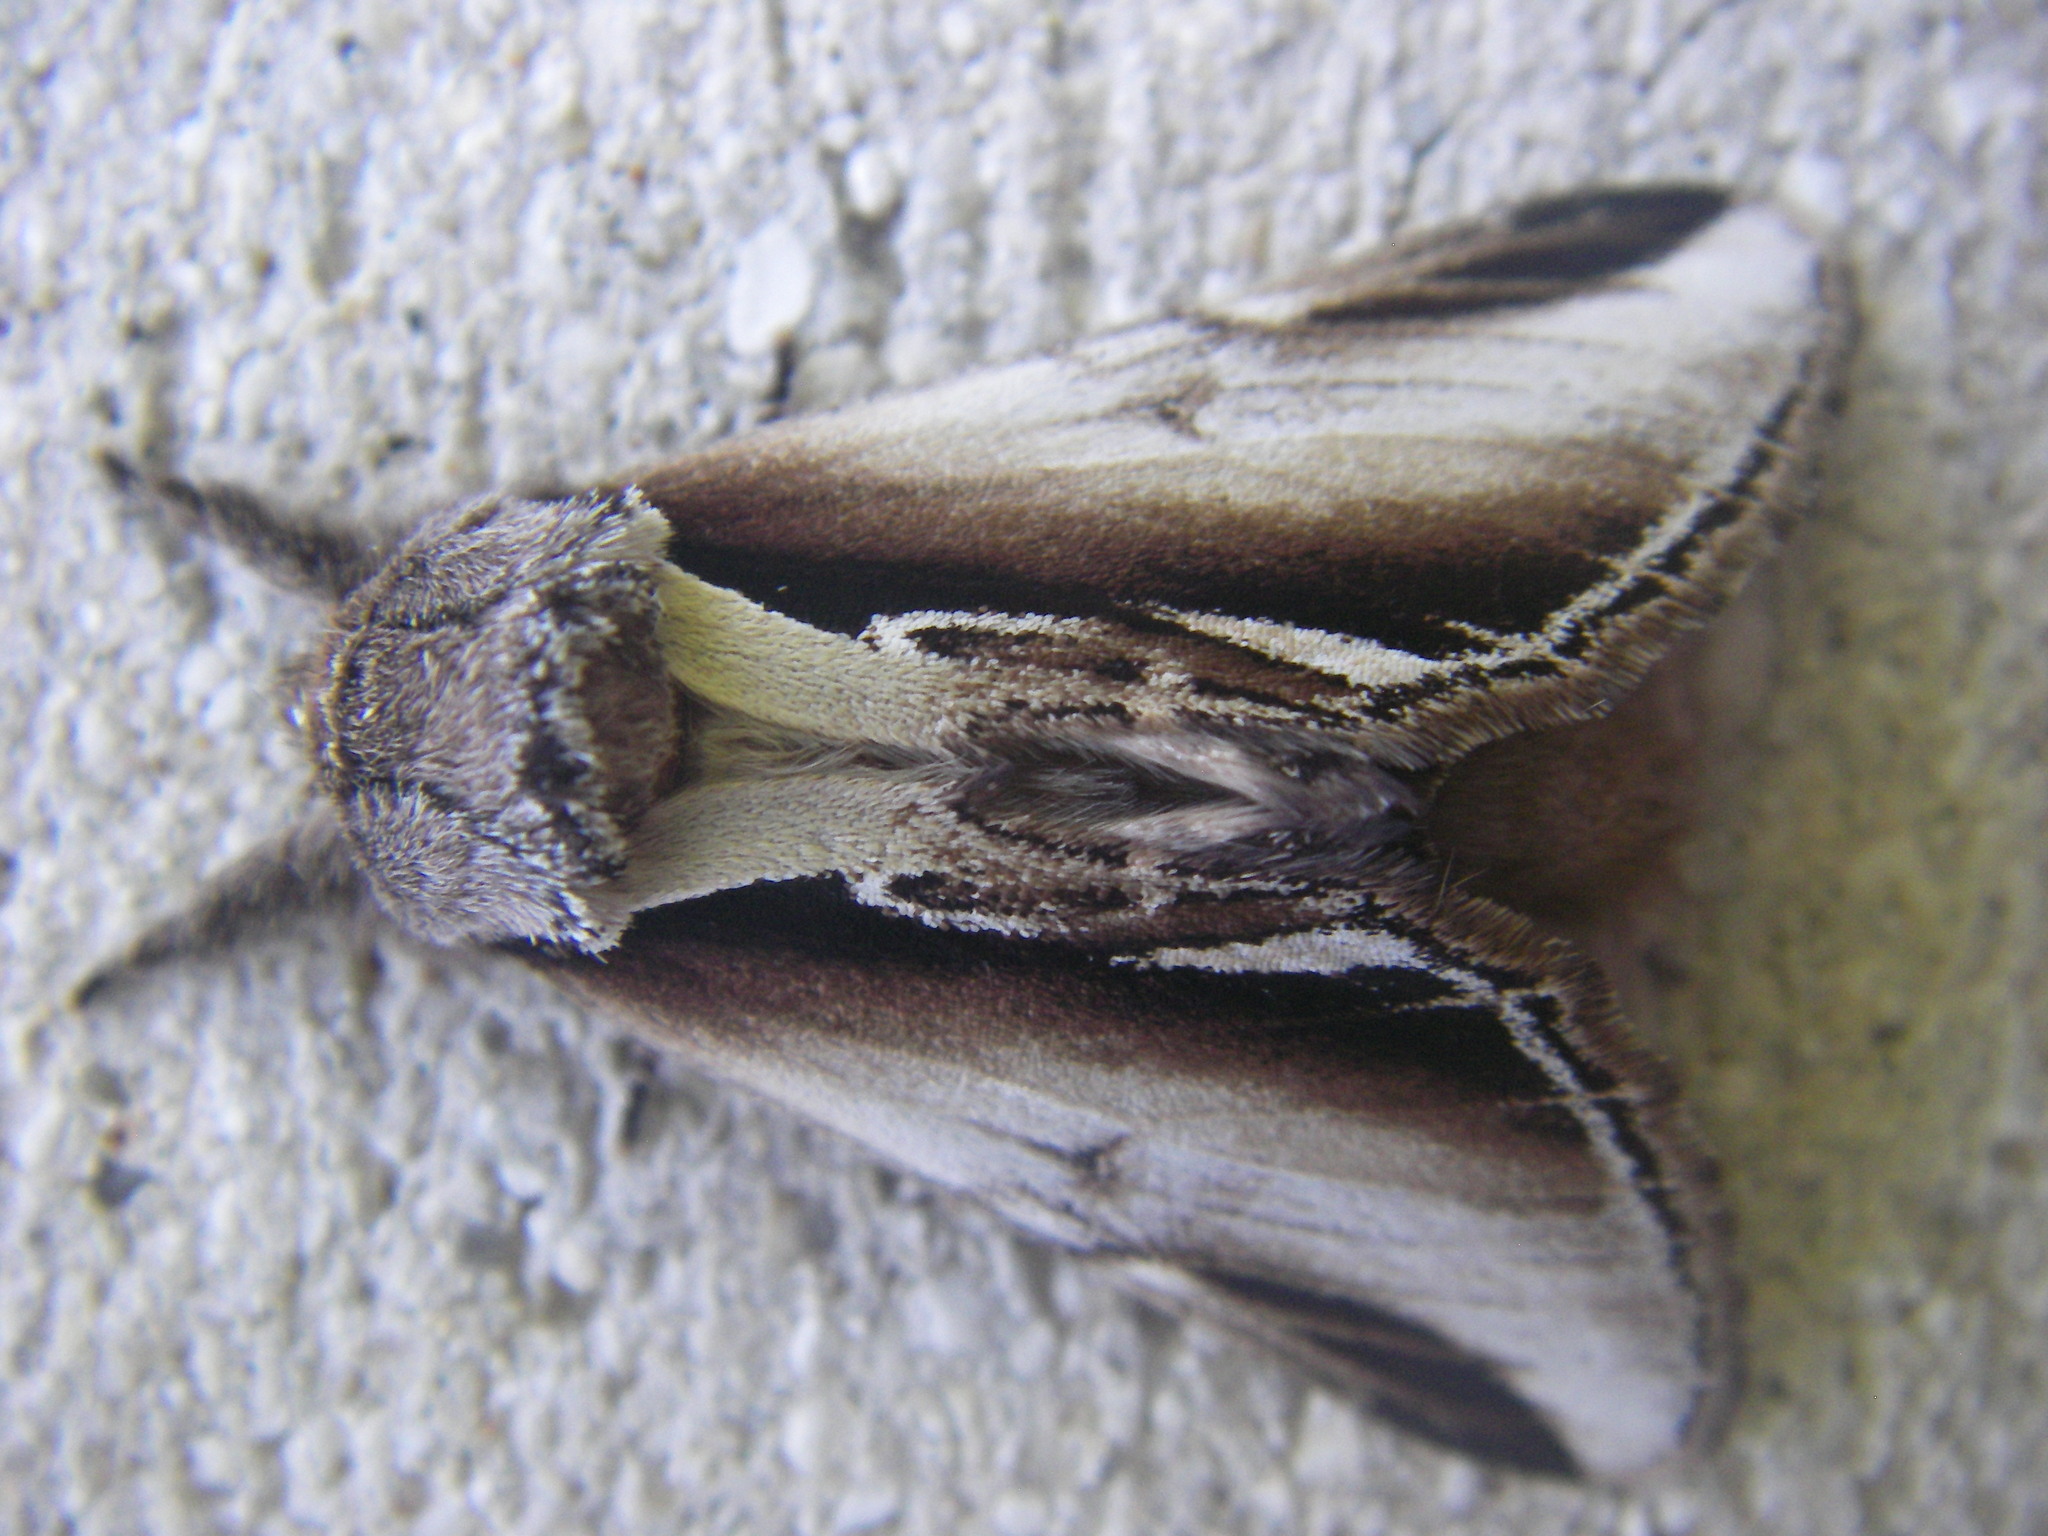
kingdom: Animalia
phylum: Arthropoda
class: Insecta
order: Lepidoptera
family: Notodontidae
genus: Pheosia
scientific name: Pheosia gnoma
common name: Lesser swallow prominent
